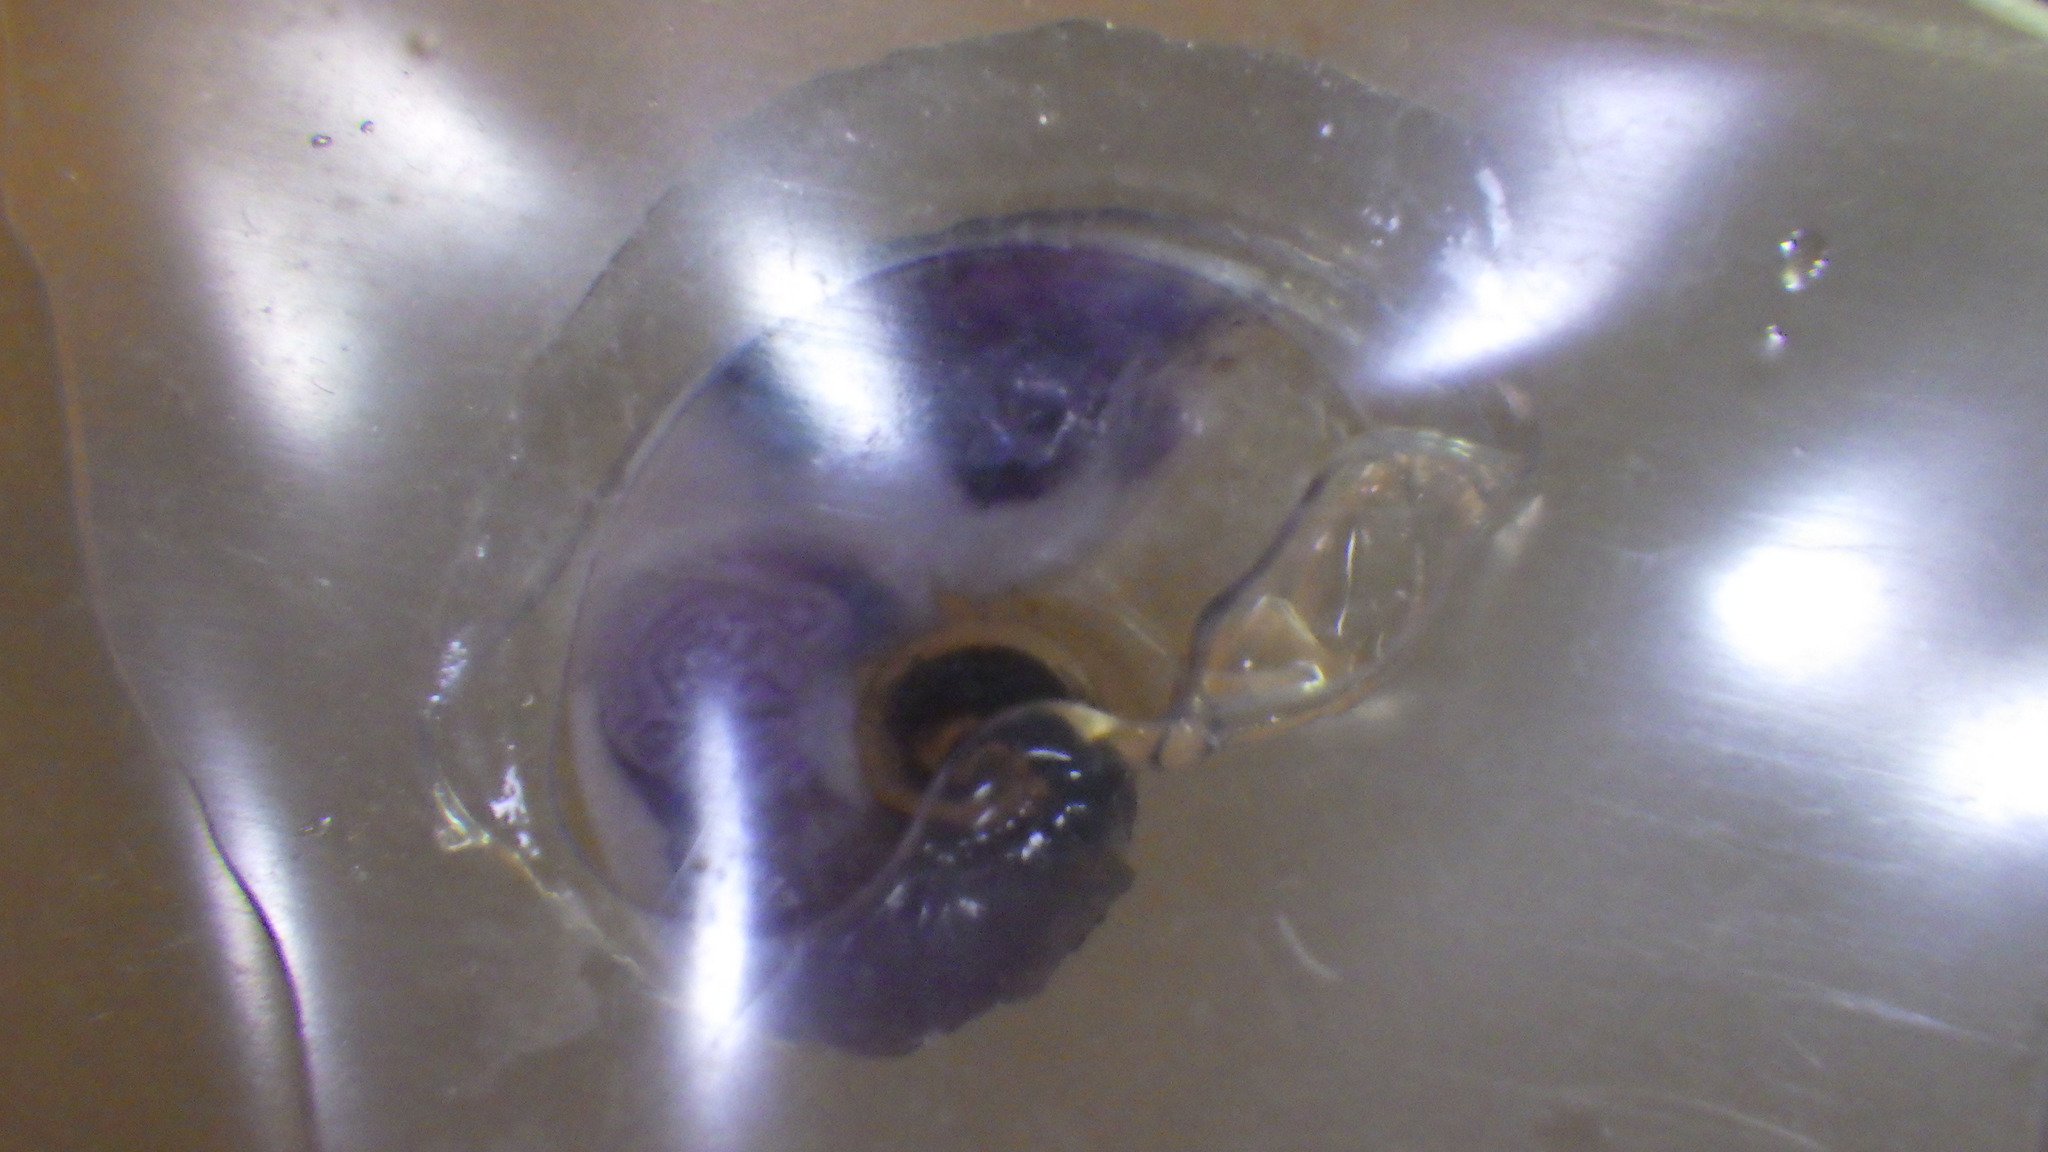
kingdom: Animalia
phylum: Mollusca
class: Gastropoda
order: Littorinimorpha
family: Atlantidae
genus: Atlanta
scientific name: Atlanta peronii
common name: Peron's sea butterfly
